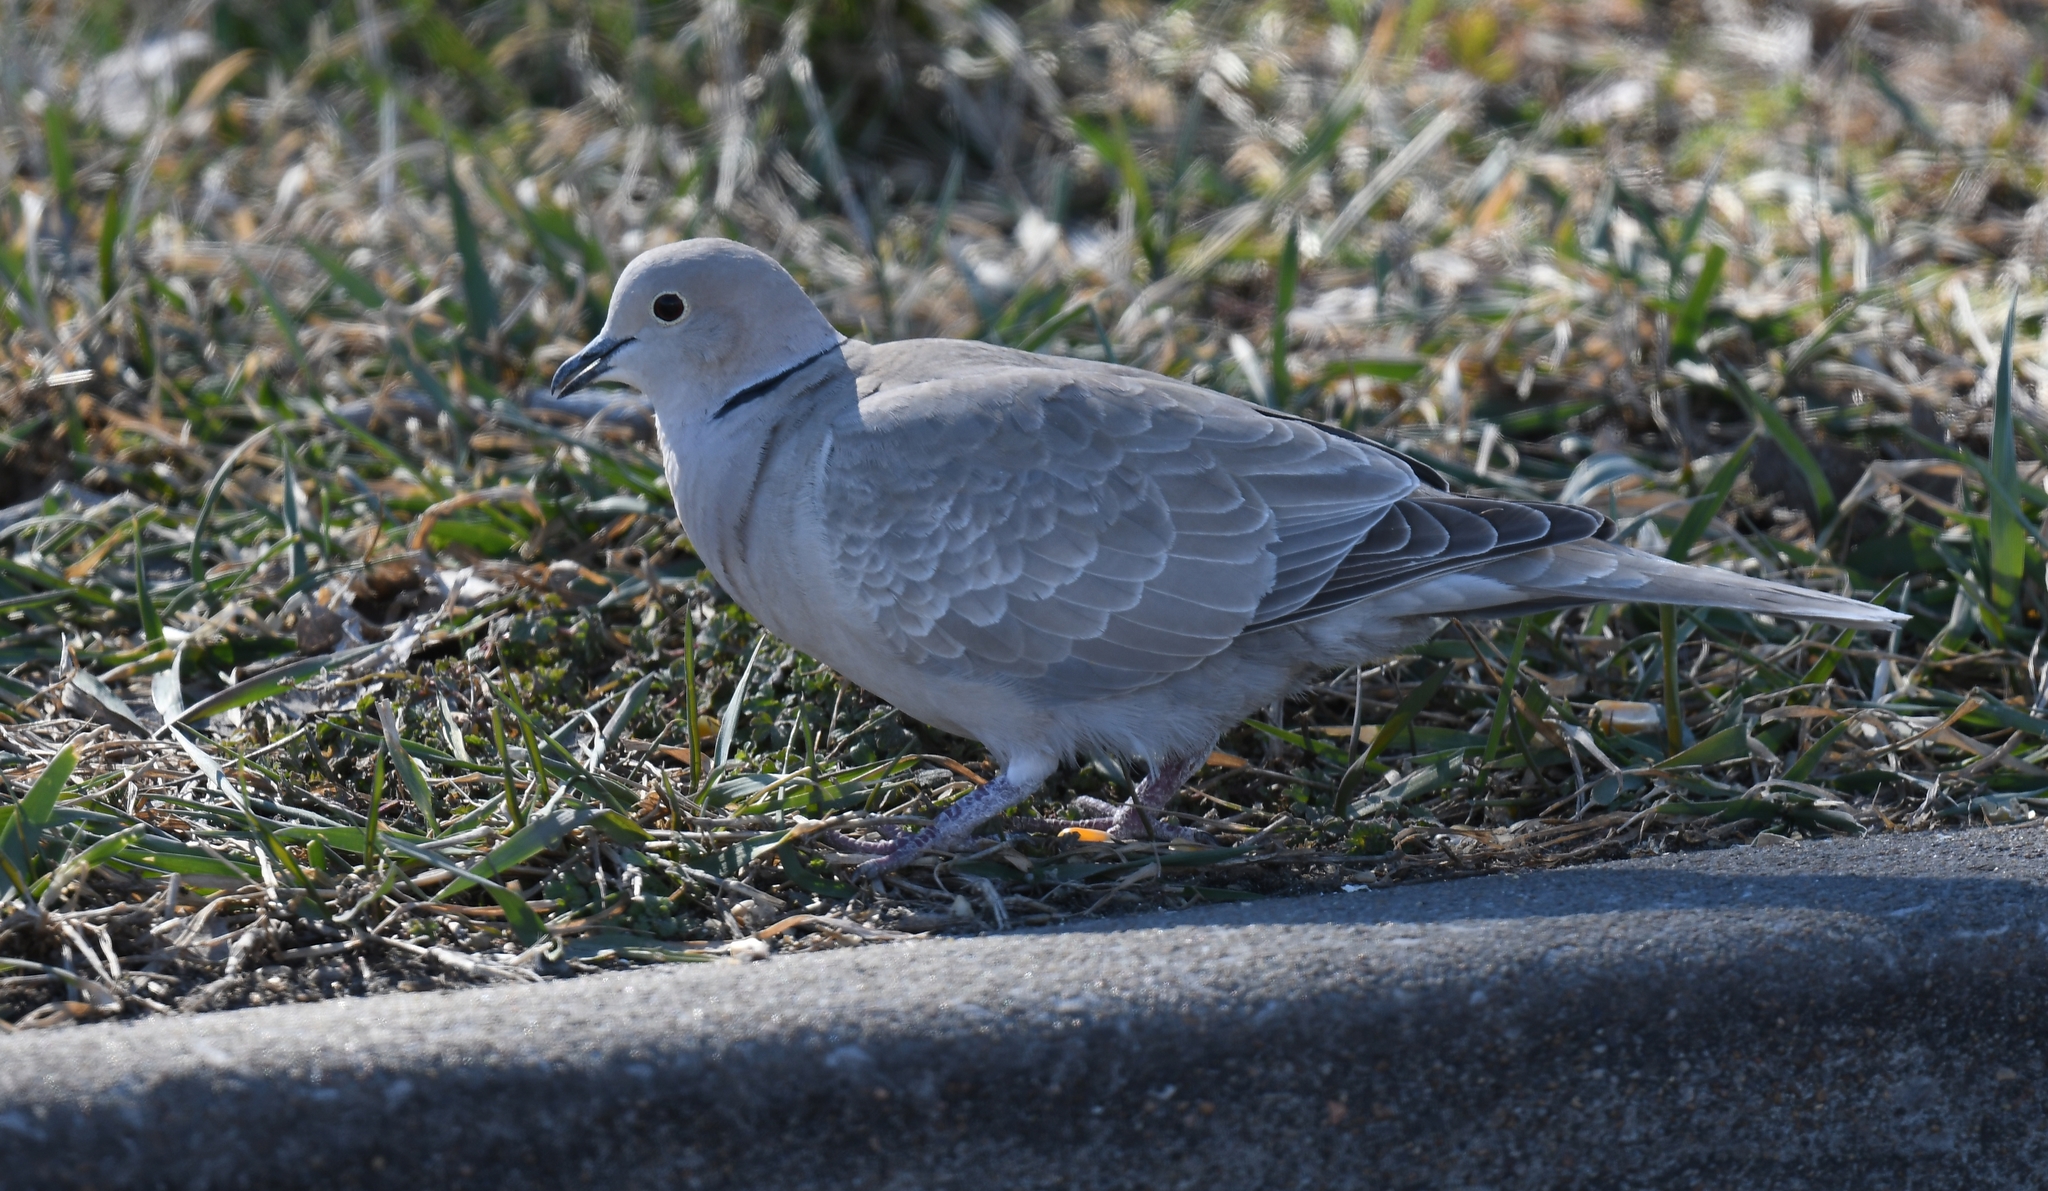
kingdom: Animalia
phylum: Chordata
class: Aves
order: Columbiformes
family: Columbidae
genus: Streptopelia
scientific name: Streptopelia decaocto
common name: Eurasian collared dove
